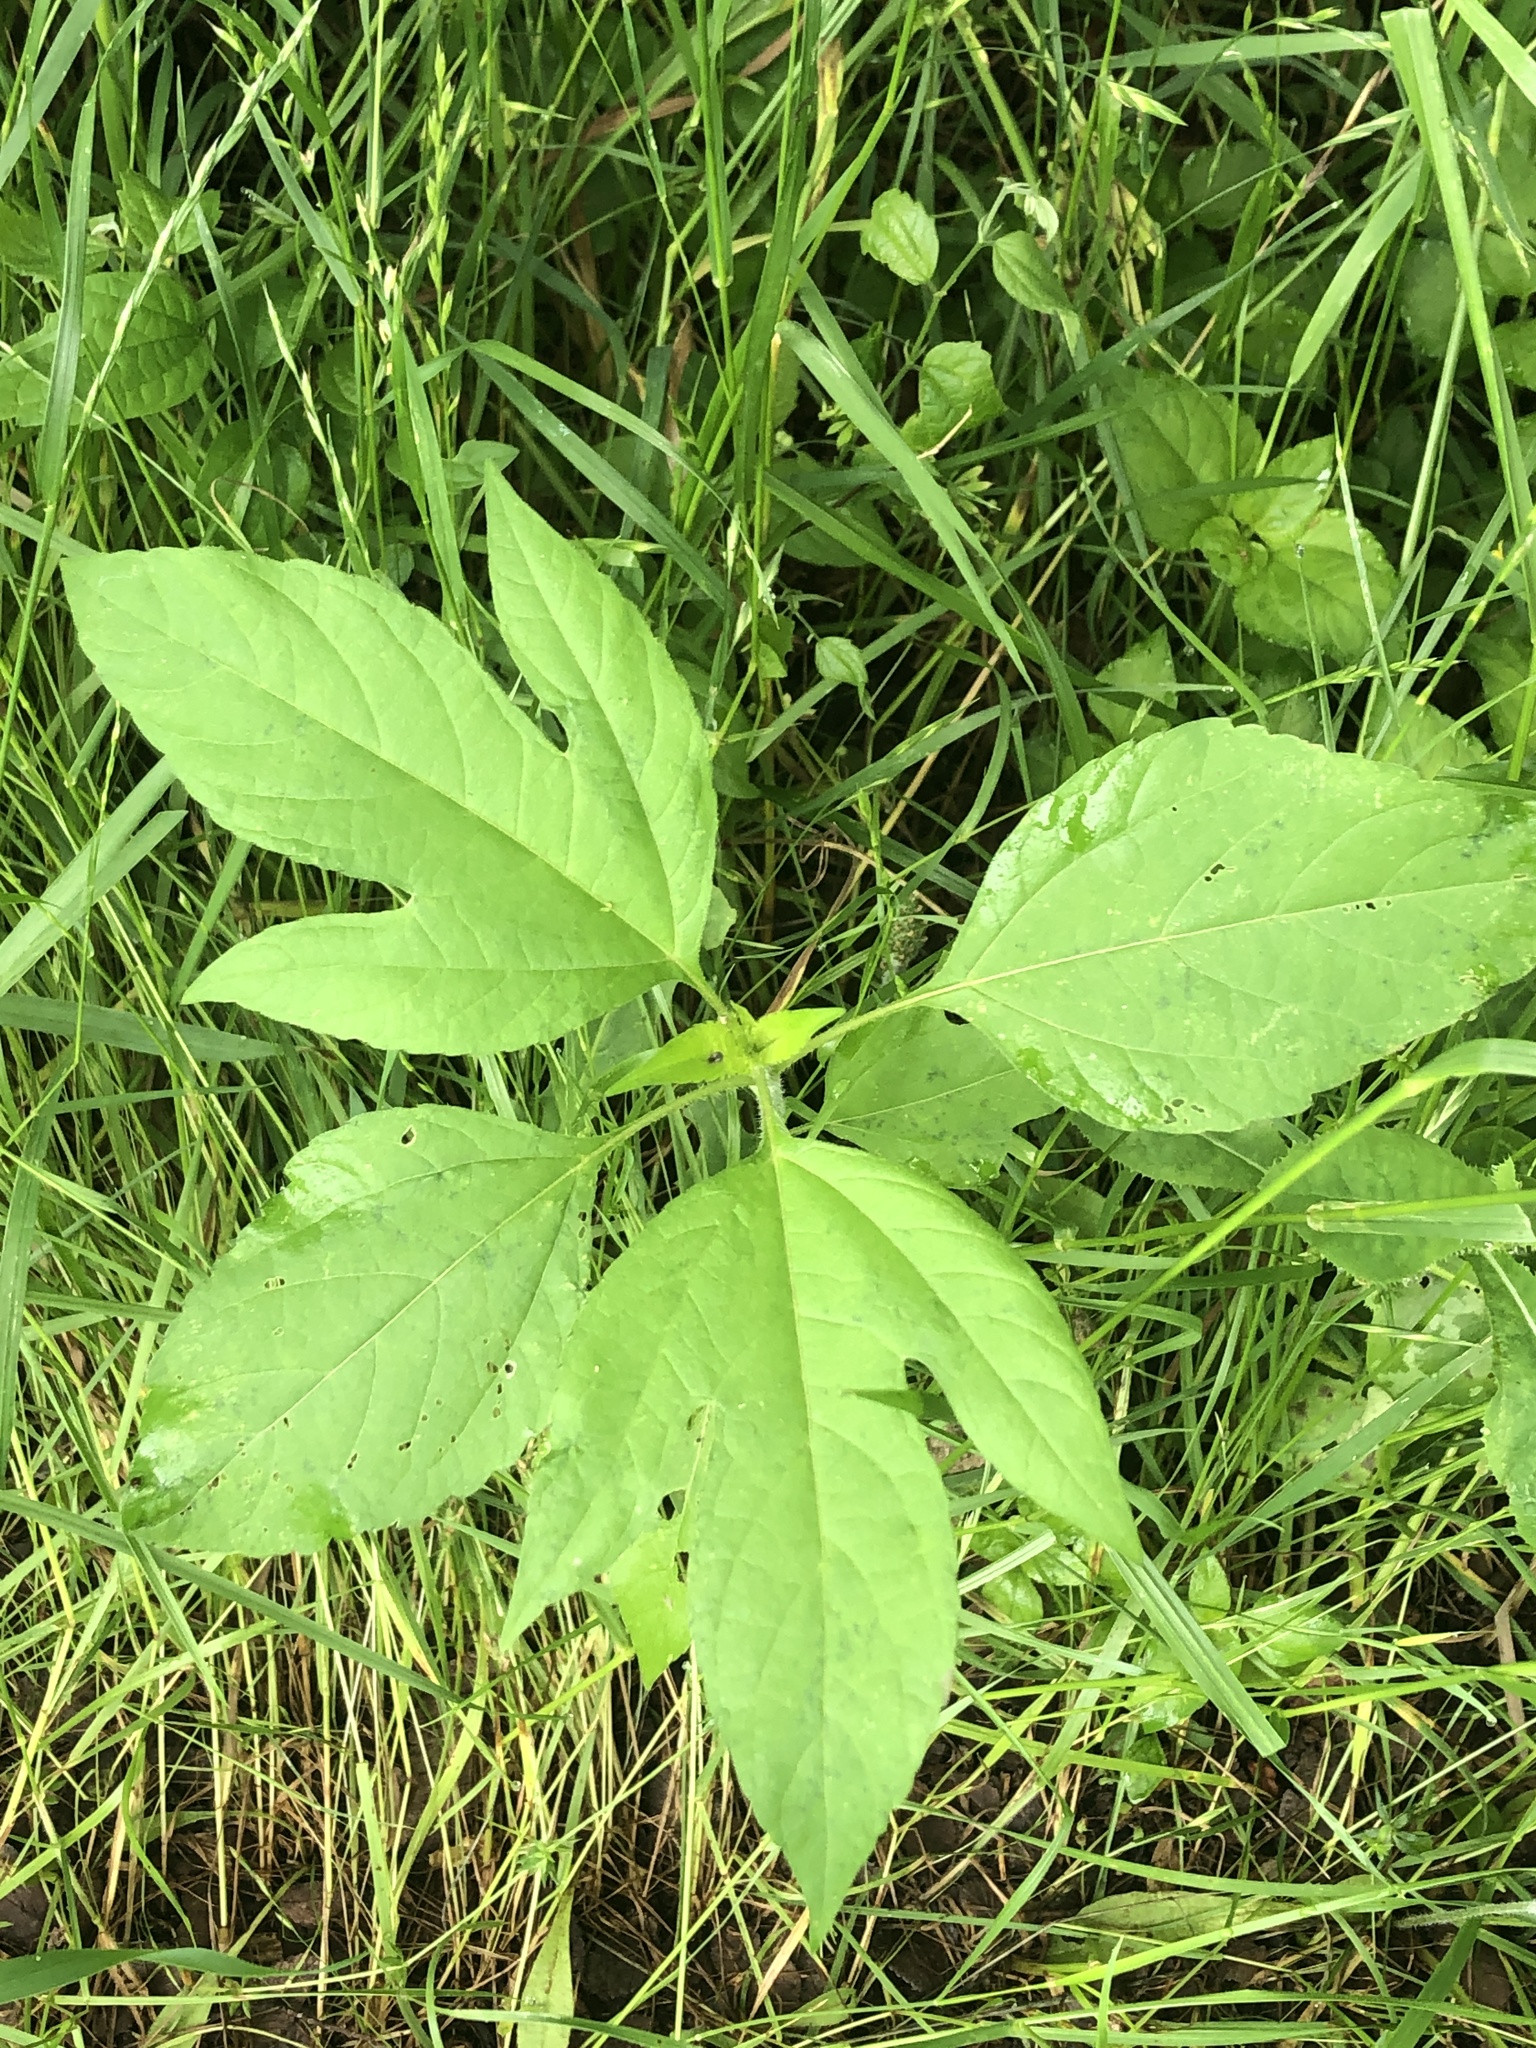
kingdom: Plantae
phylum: Tracheophyta
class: Magnoliopsida
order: Asterales
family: Asteraceae
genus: Ambrosia
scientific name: Ambrosia trifida
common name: Giant ragweed
